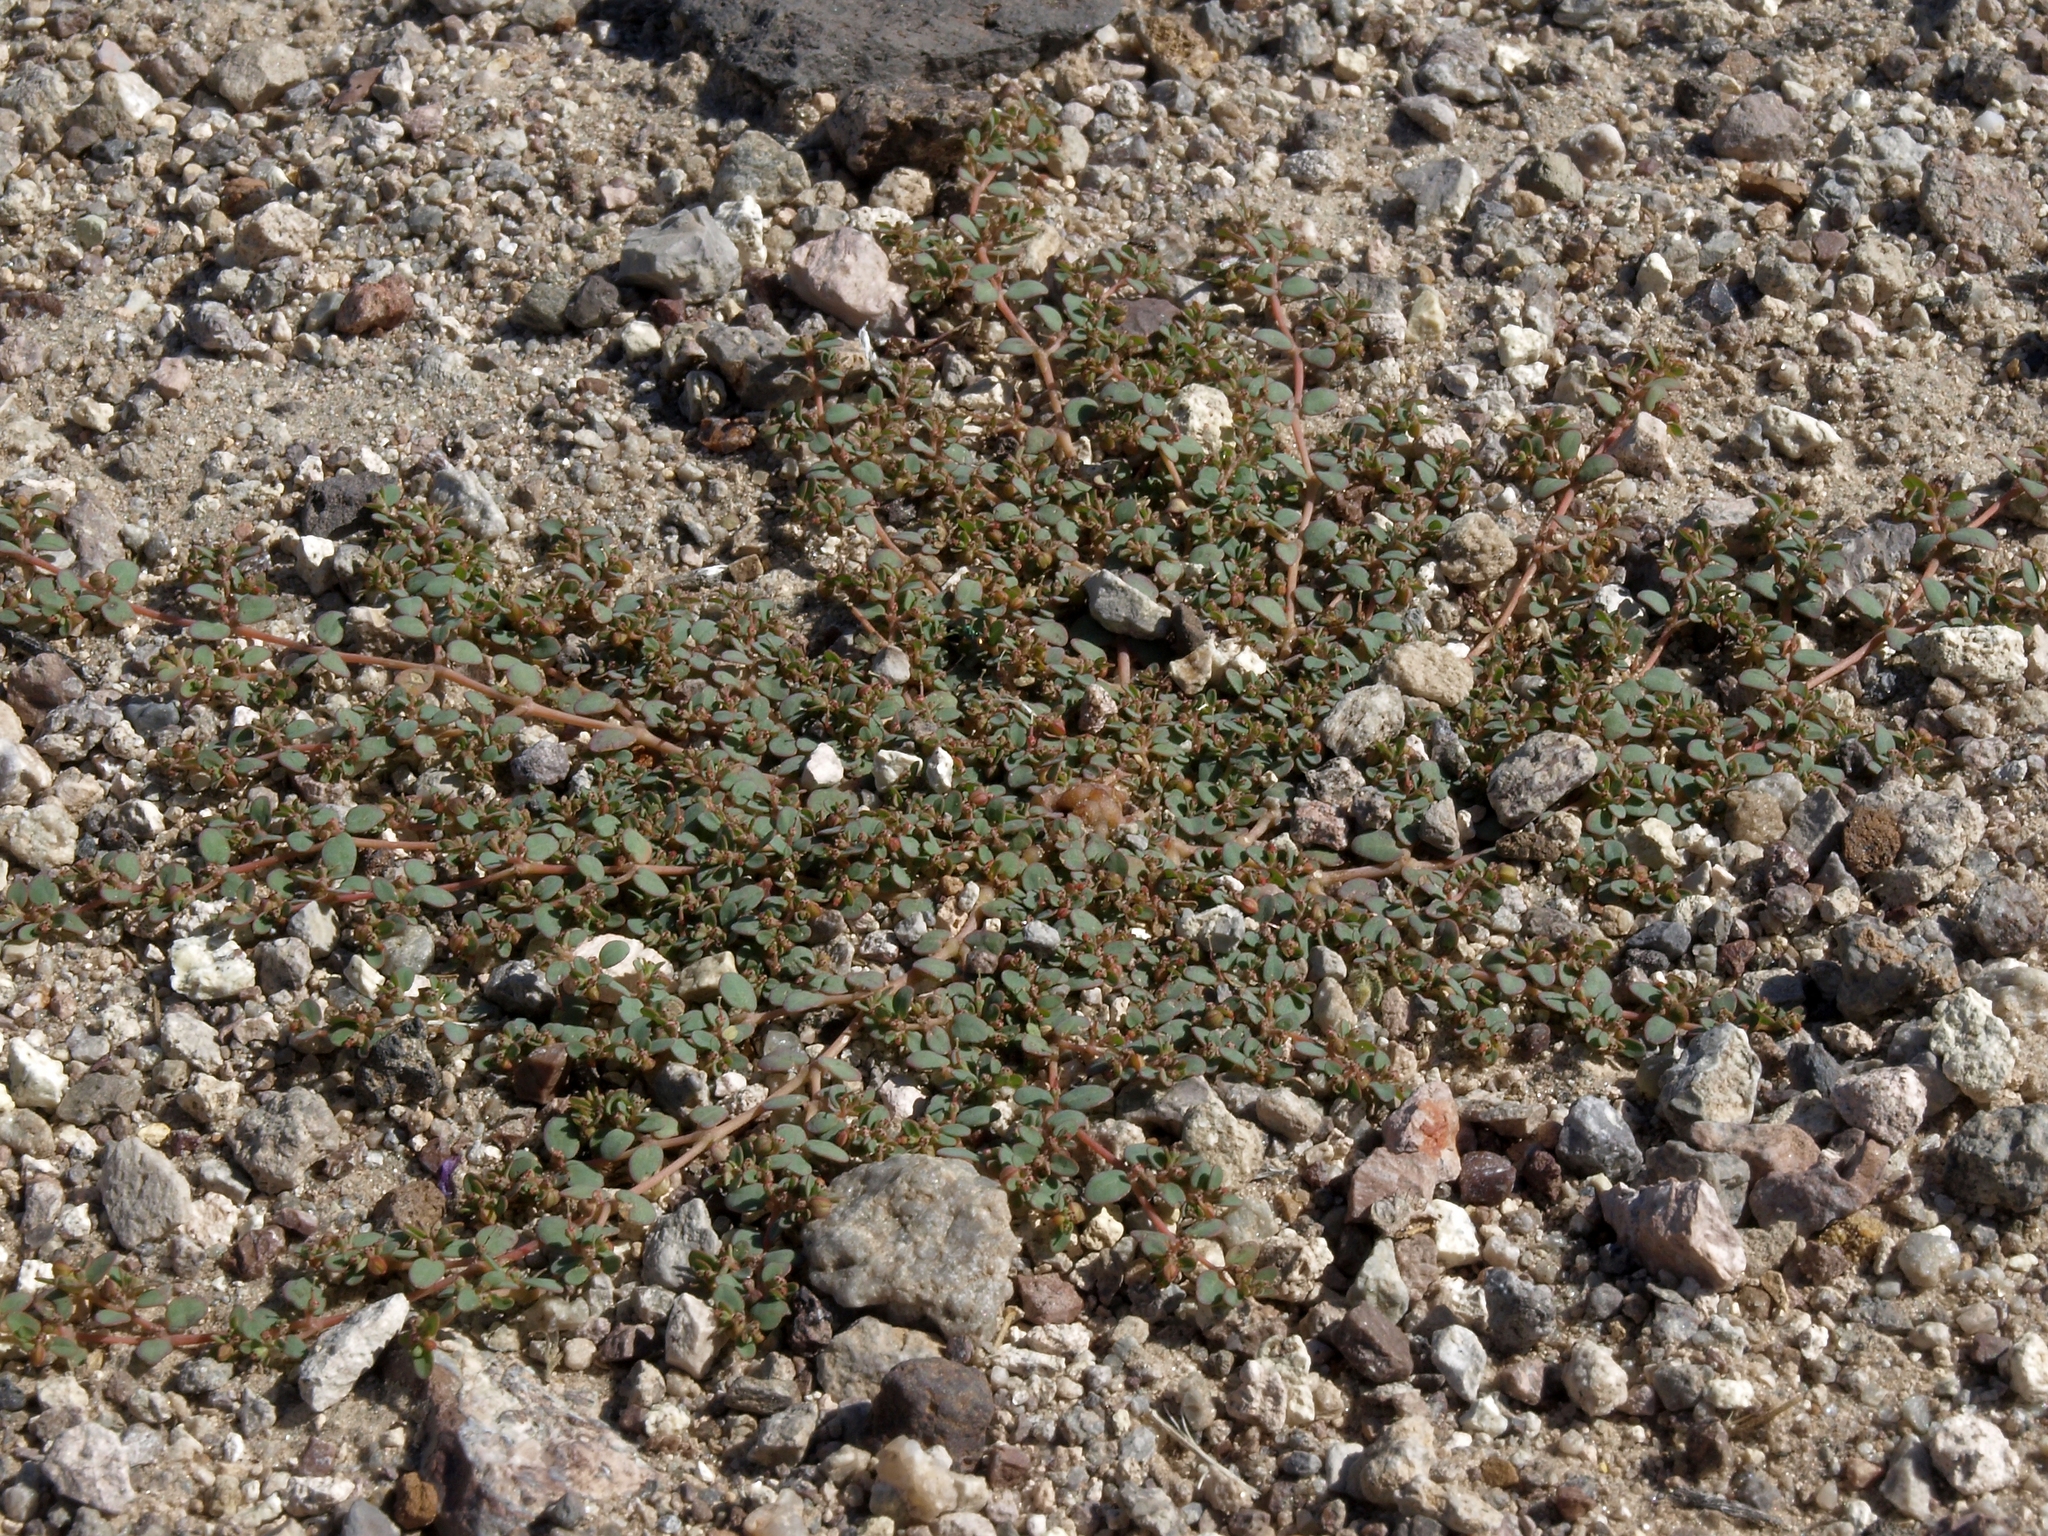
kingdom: Plantae
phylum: Tracheophyta
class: Magnoliopsida
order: Malpighiales
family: Euphorbiaceae
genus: Euphorbia
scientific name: Euphorbia micromera
